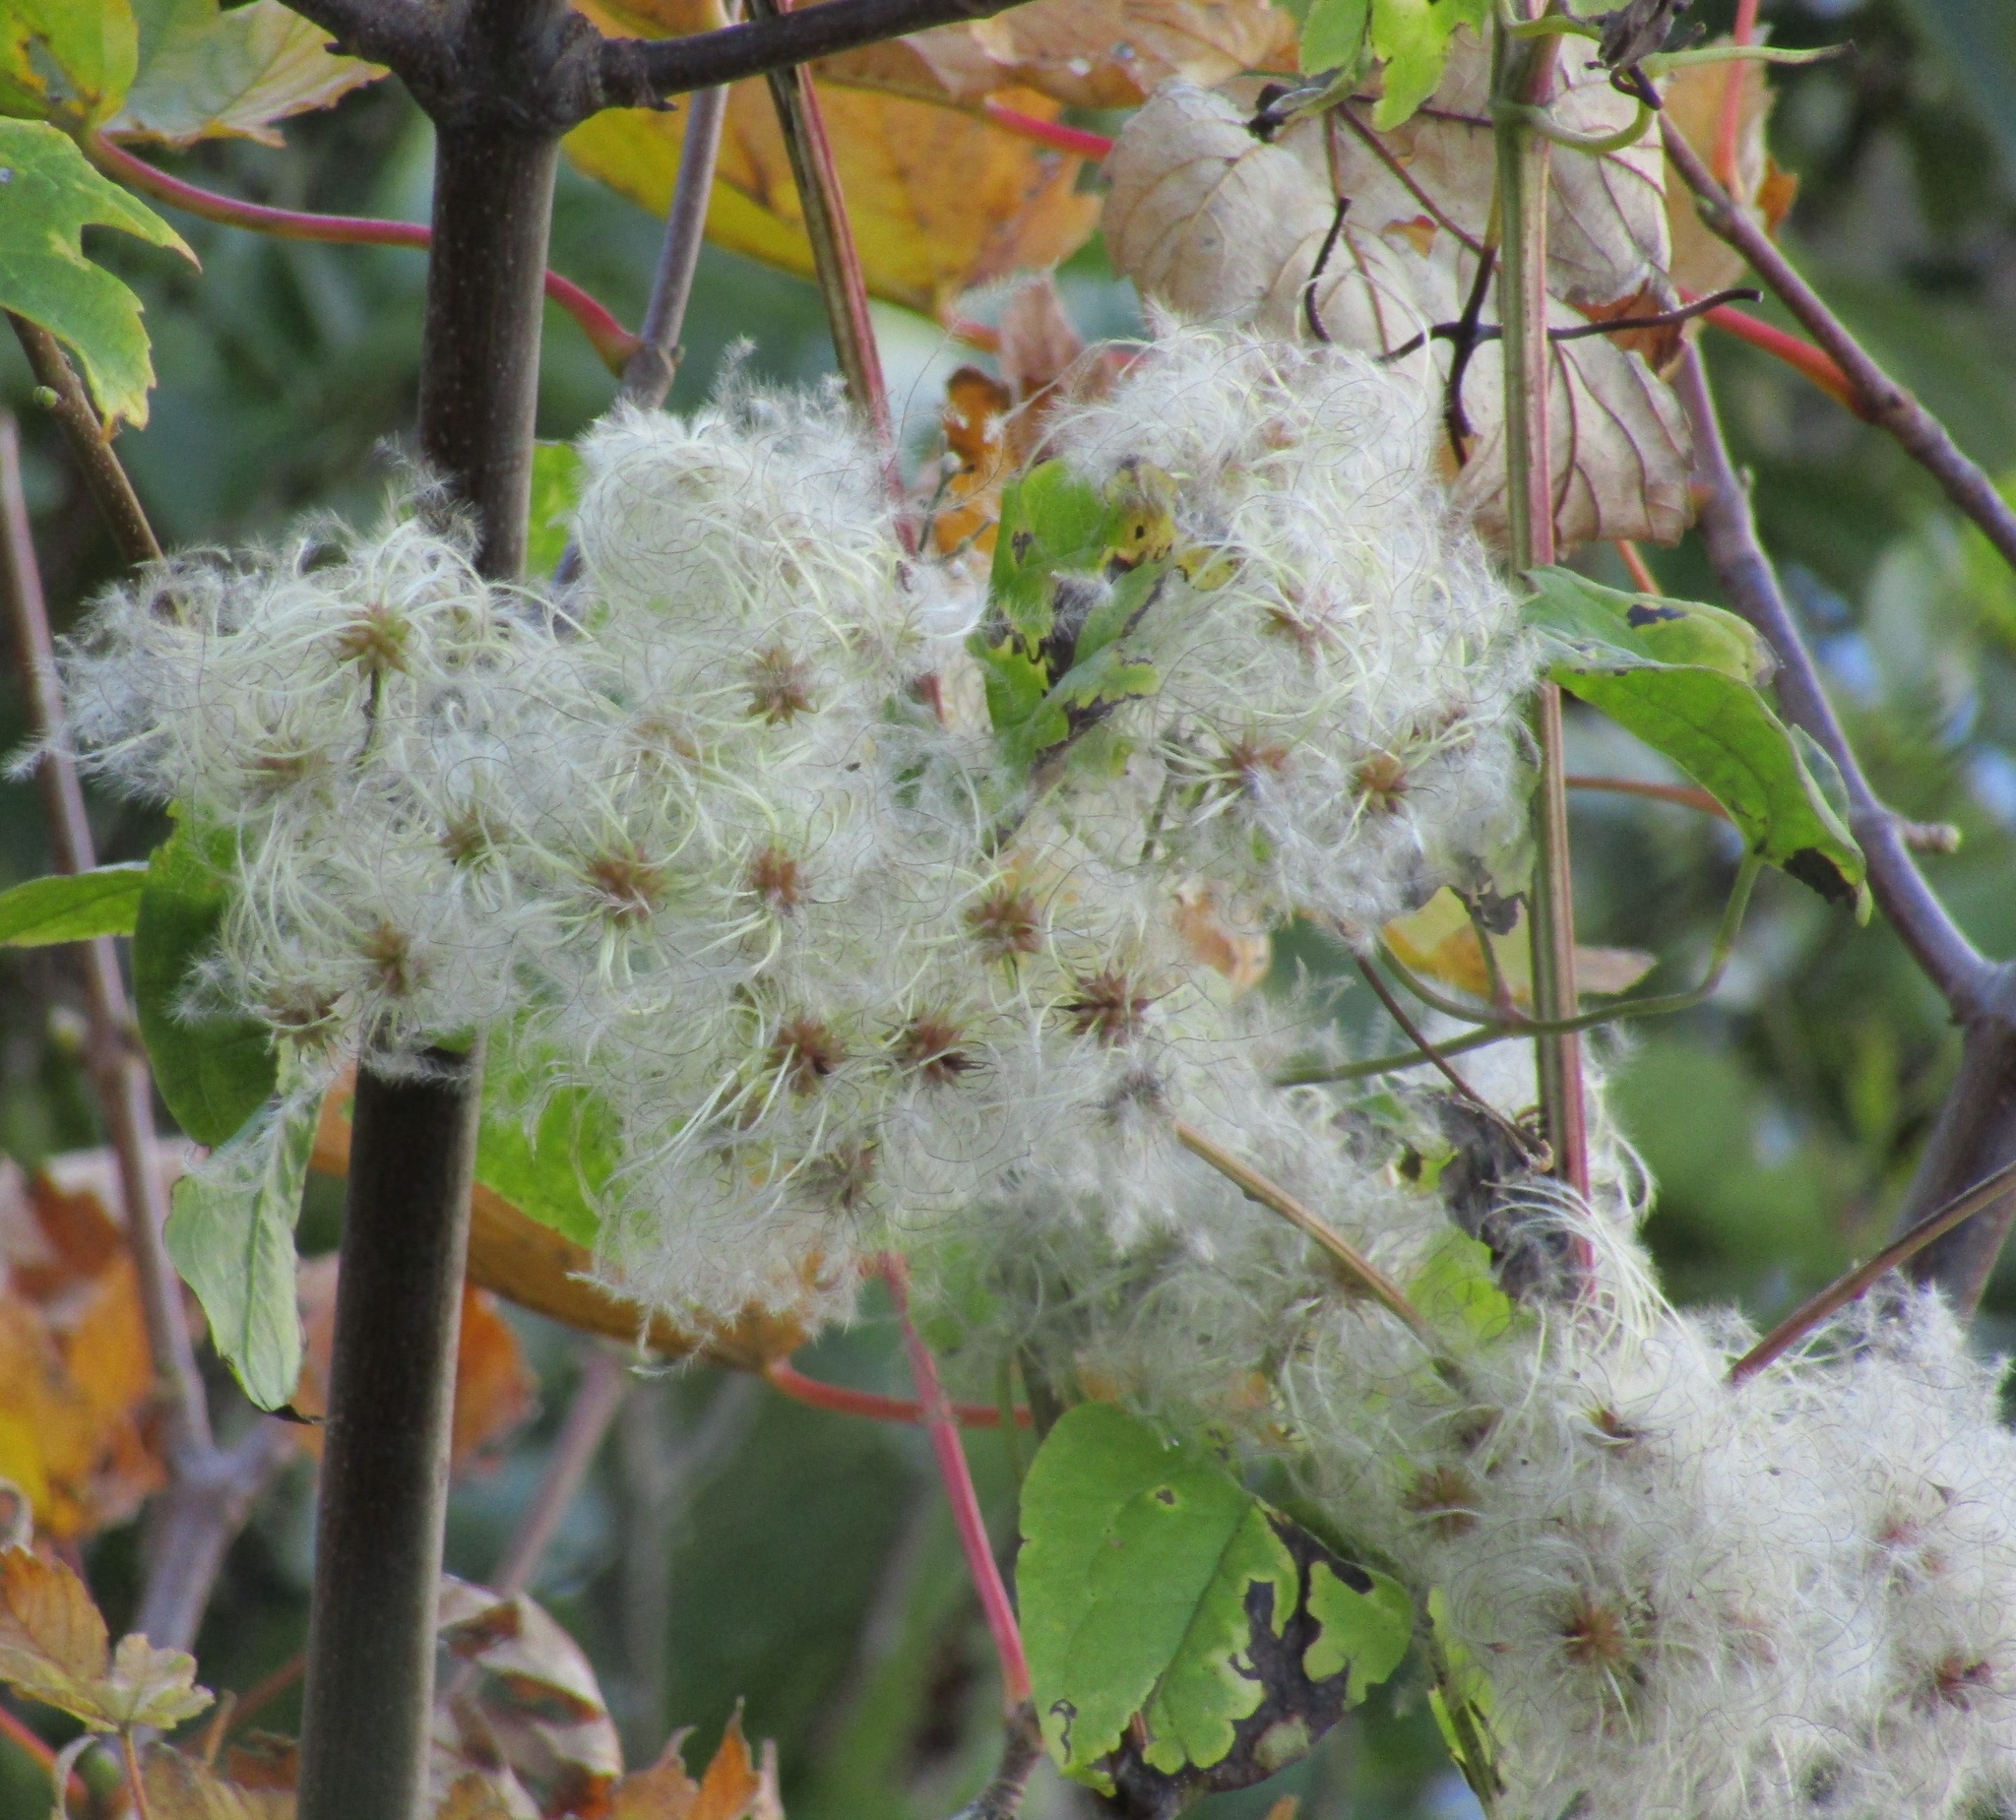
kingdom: Plantae
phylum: Tracheophyta
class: Magnoliopsida
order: Ranunculales
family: Ranunculaceae
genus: Clematis
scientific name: Clematis vitalba
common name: Evergreen clematis
